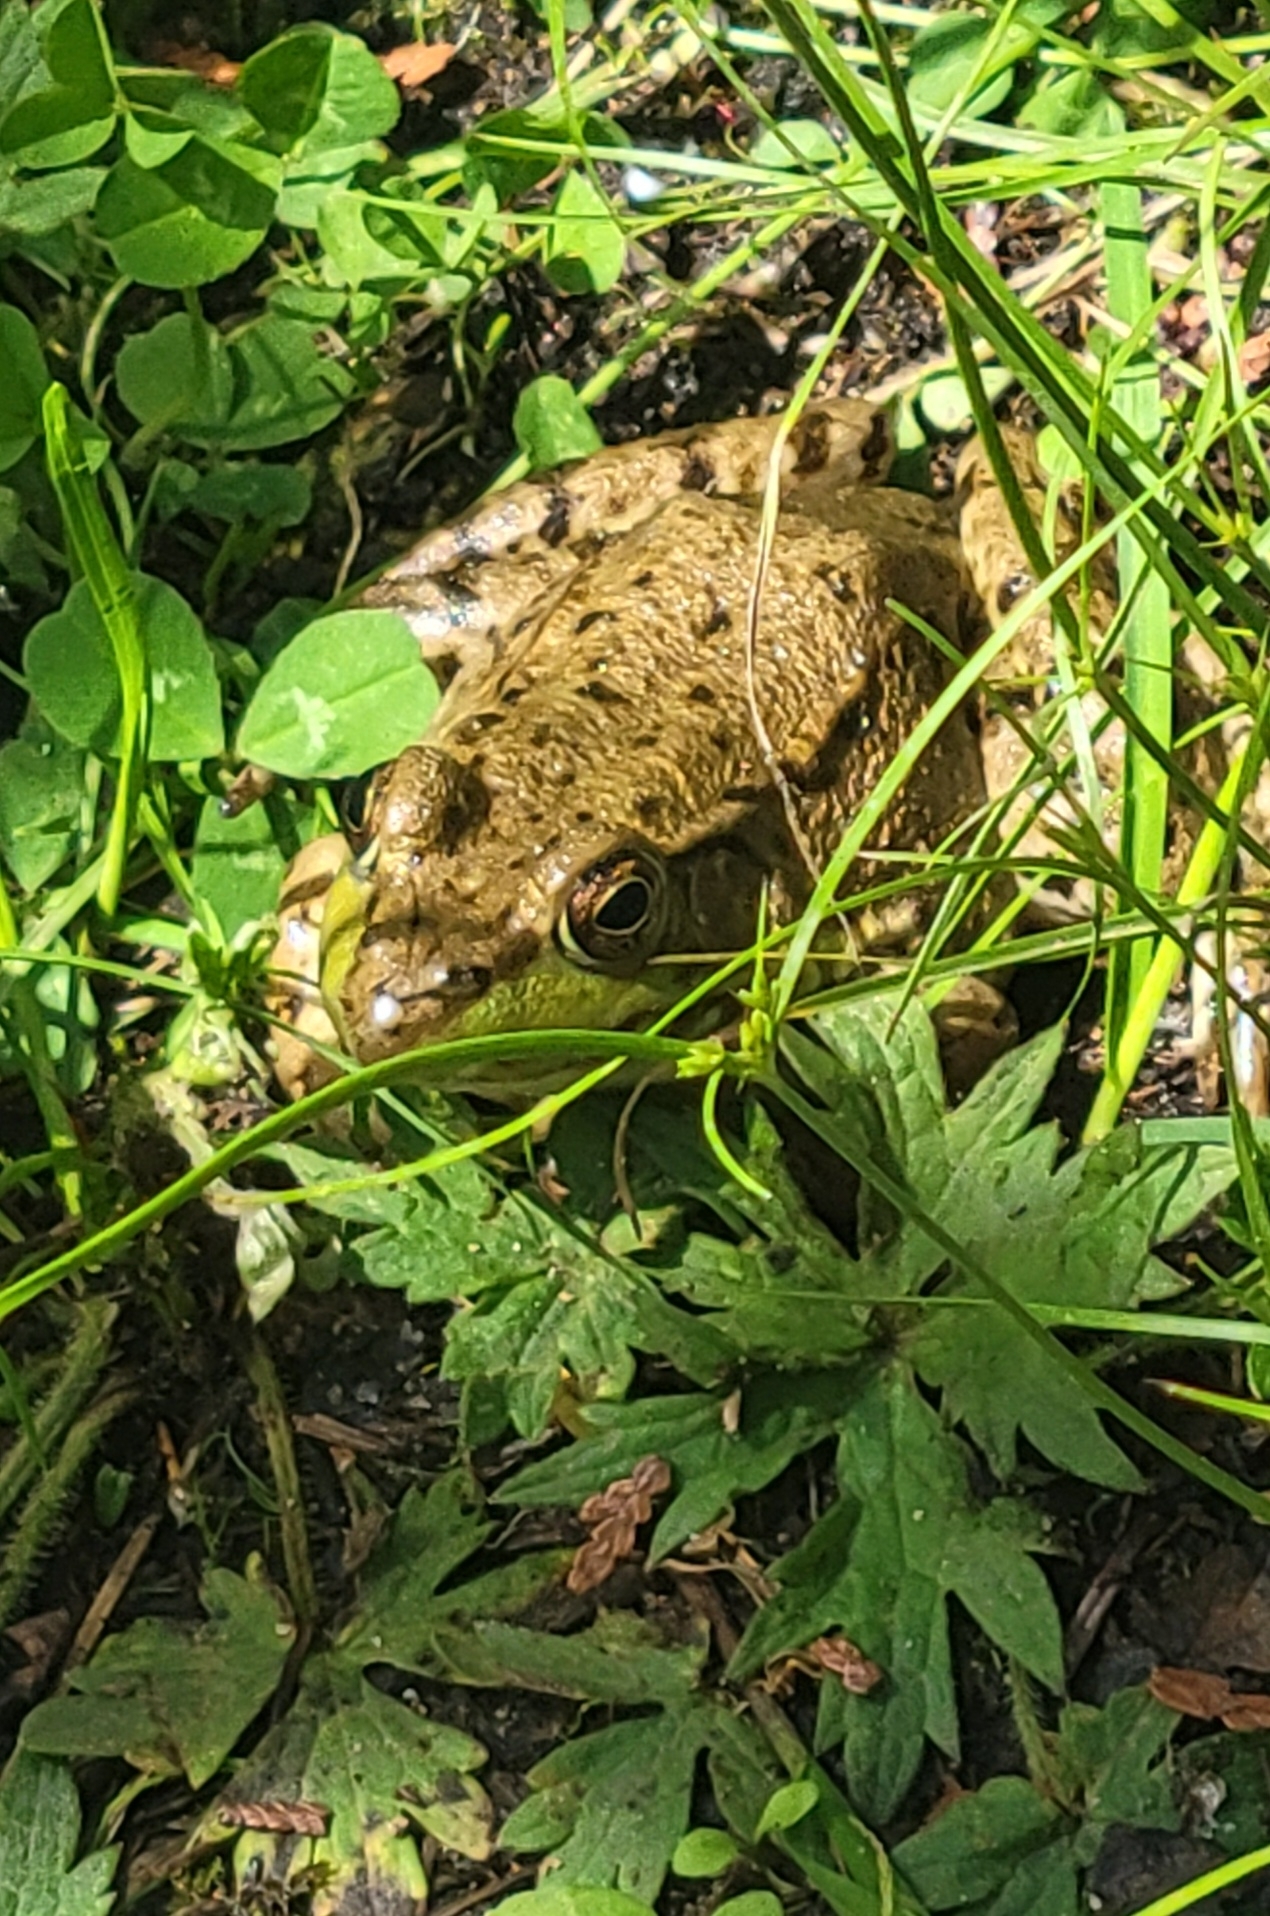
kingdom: Animalia
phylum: Chordata
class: Amphibia
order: Anura
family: Ranidae
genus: Lithobates
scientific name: Lithobates clamitans
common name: Green frog
